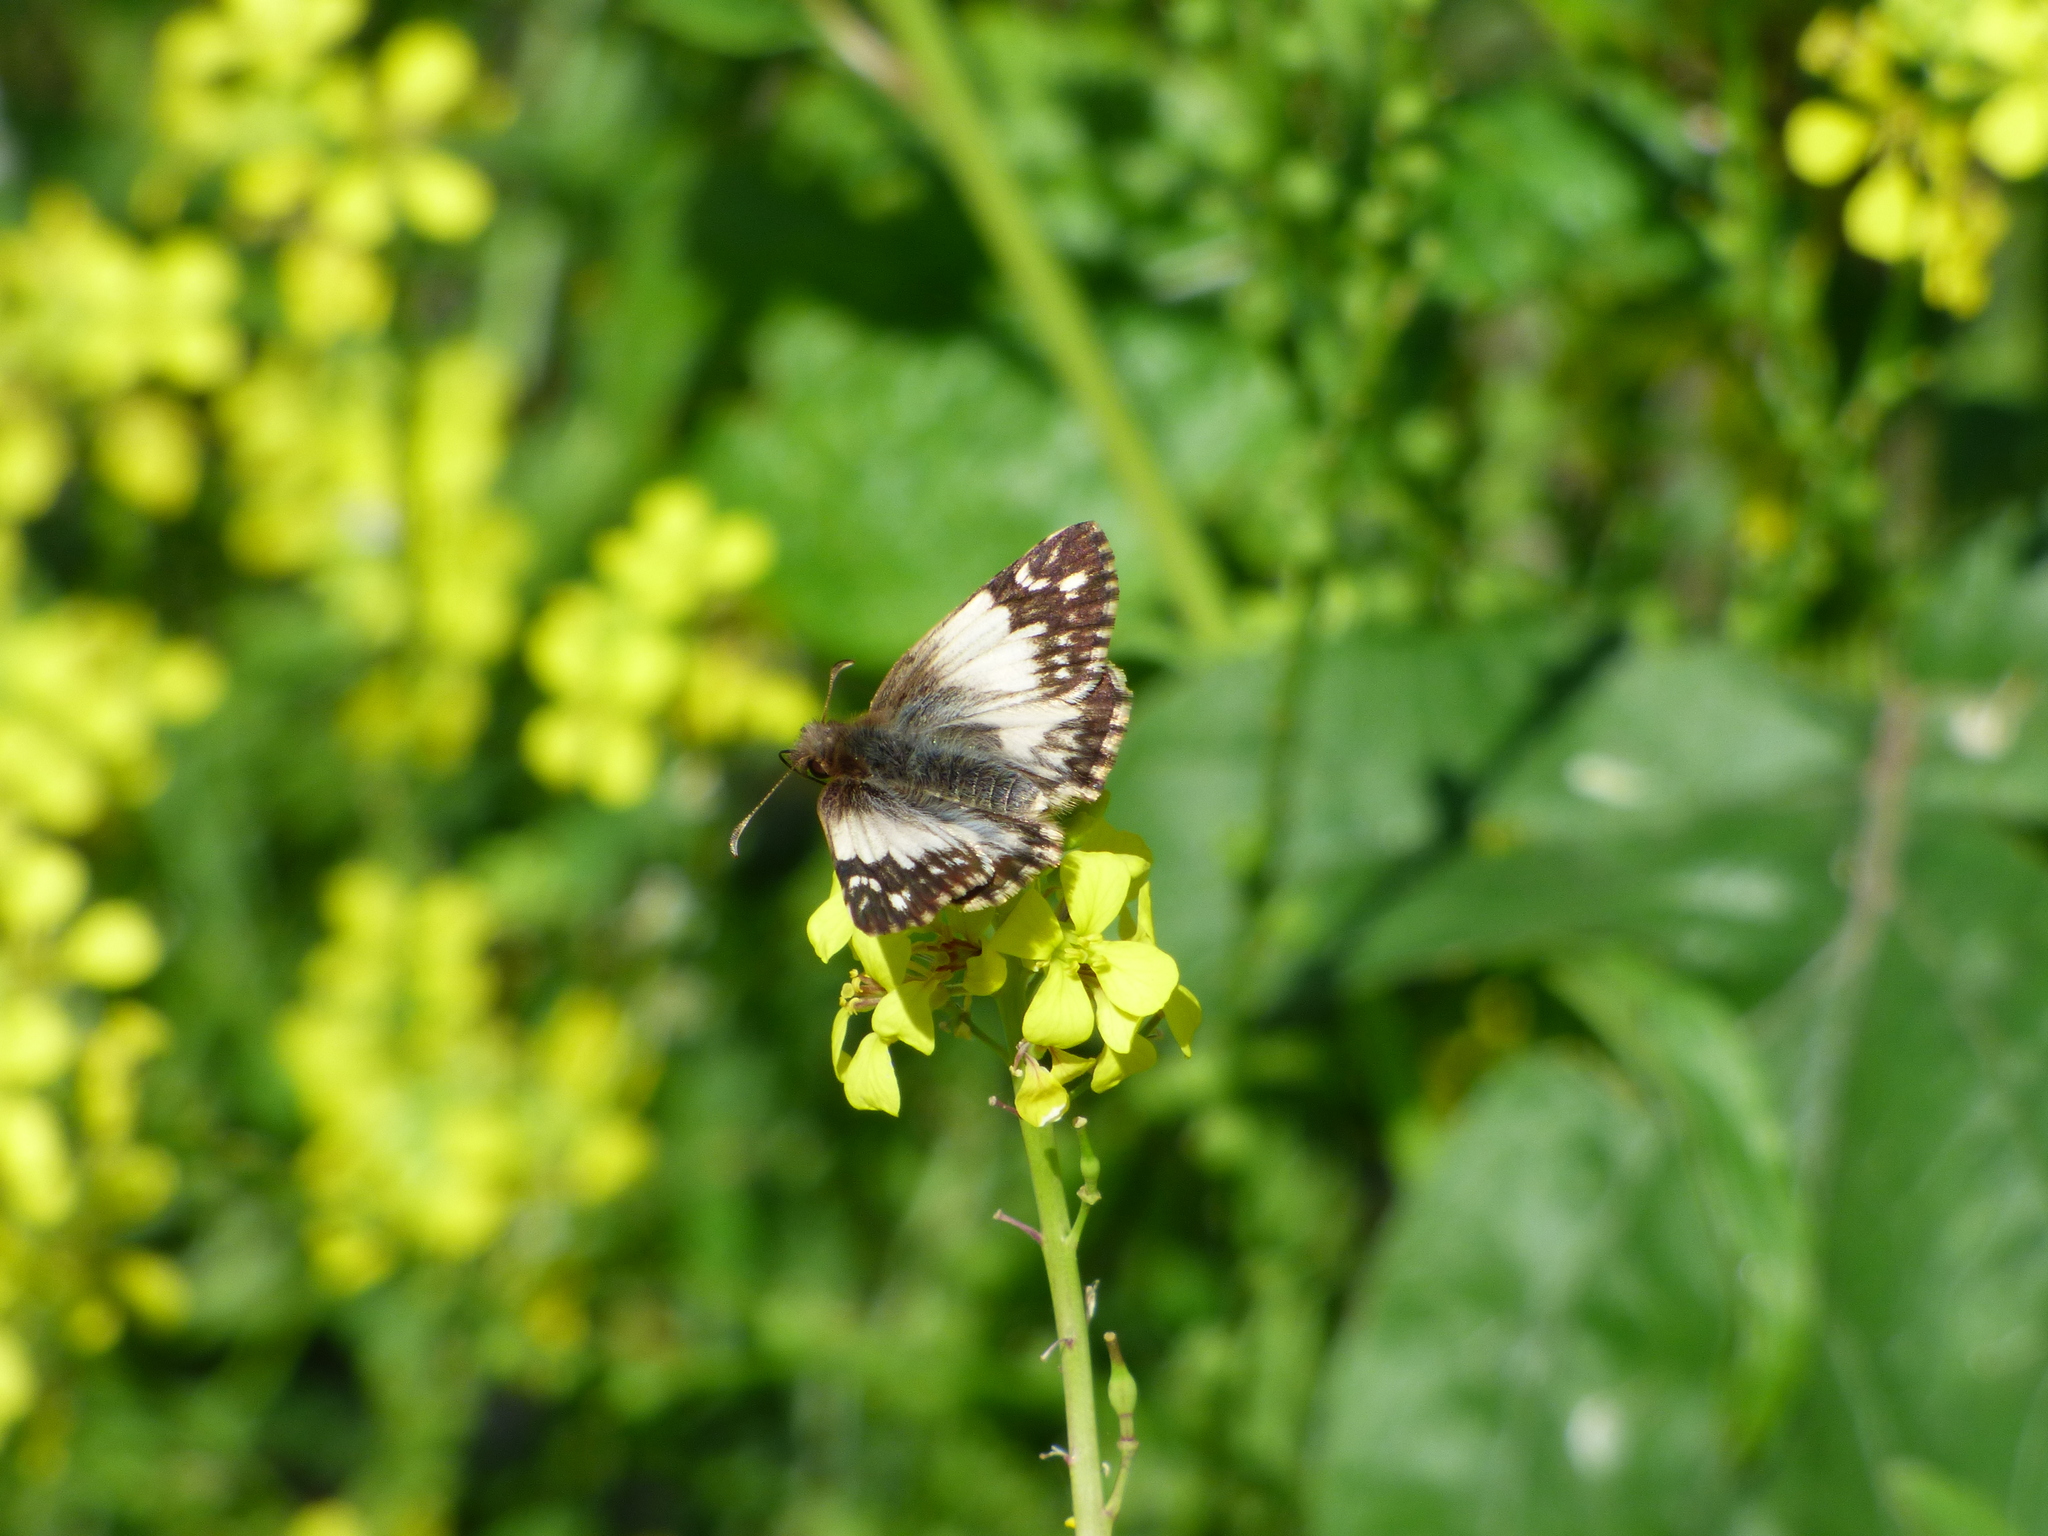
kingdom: Animalia
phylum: Arthropoda
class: Insecta
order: Lepidoptera
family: Hesperiidae
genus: Heliopetes
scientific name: Heliopetes omrina
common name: Stained white-skipper
